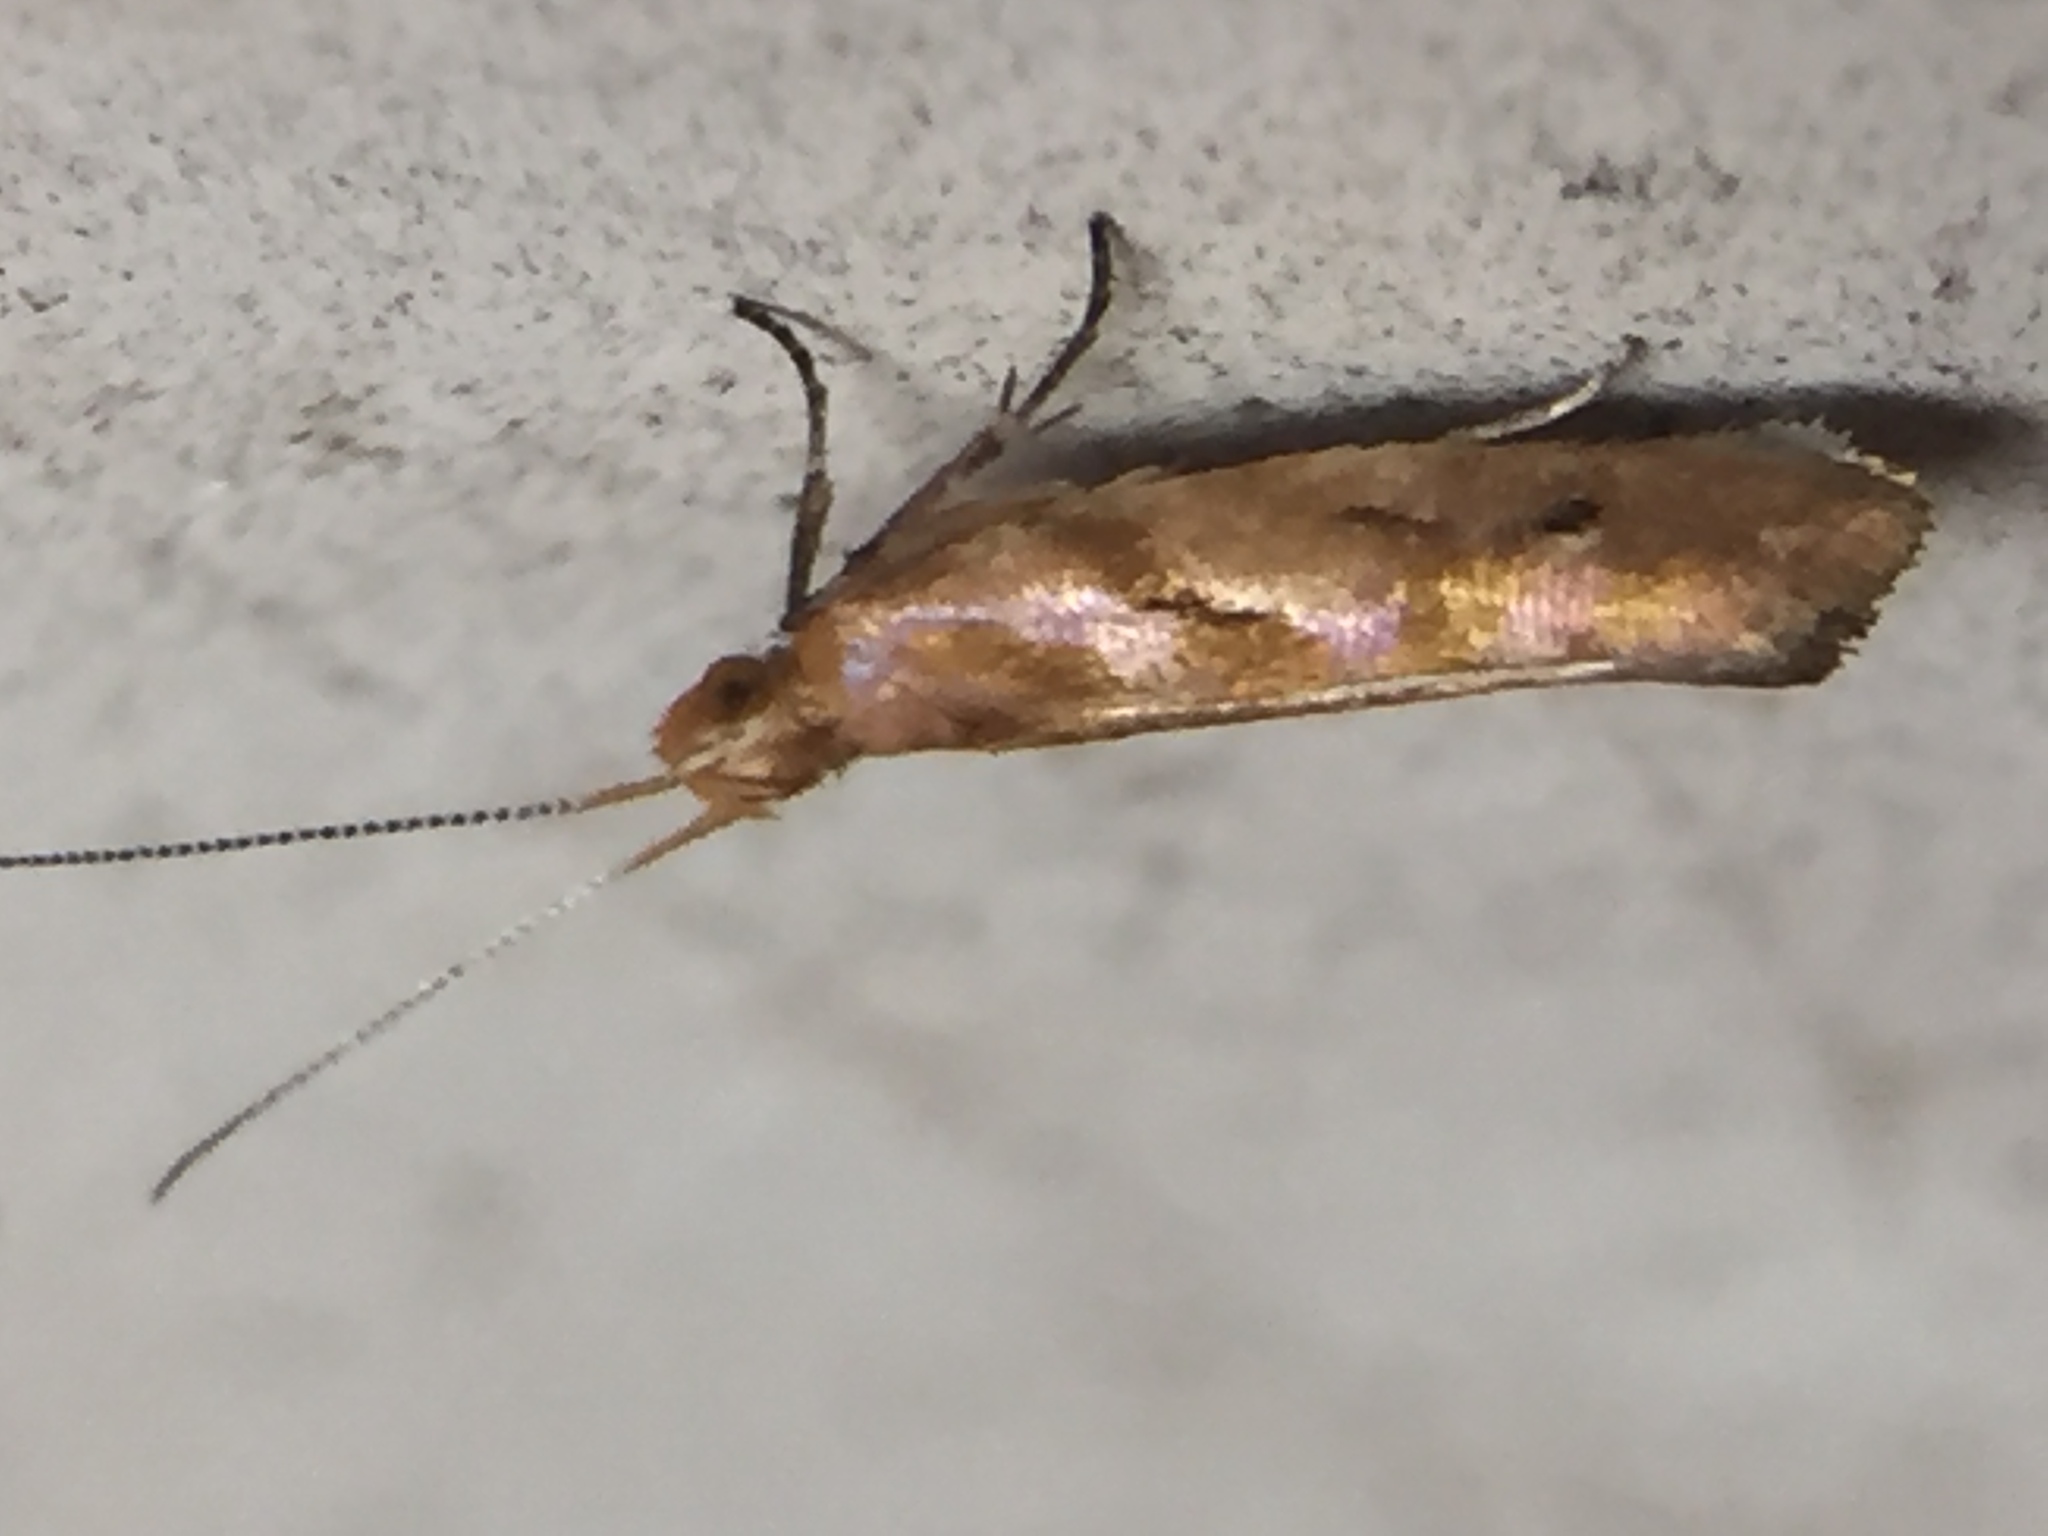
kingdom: Animalia
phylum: Arthropoda
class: Insecta
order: Lepidoptera
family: Glyphipterigidae
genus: Chrysorthenches
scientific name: Chrysorthenches virgata
